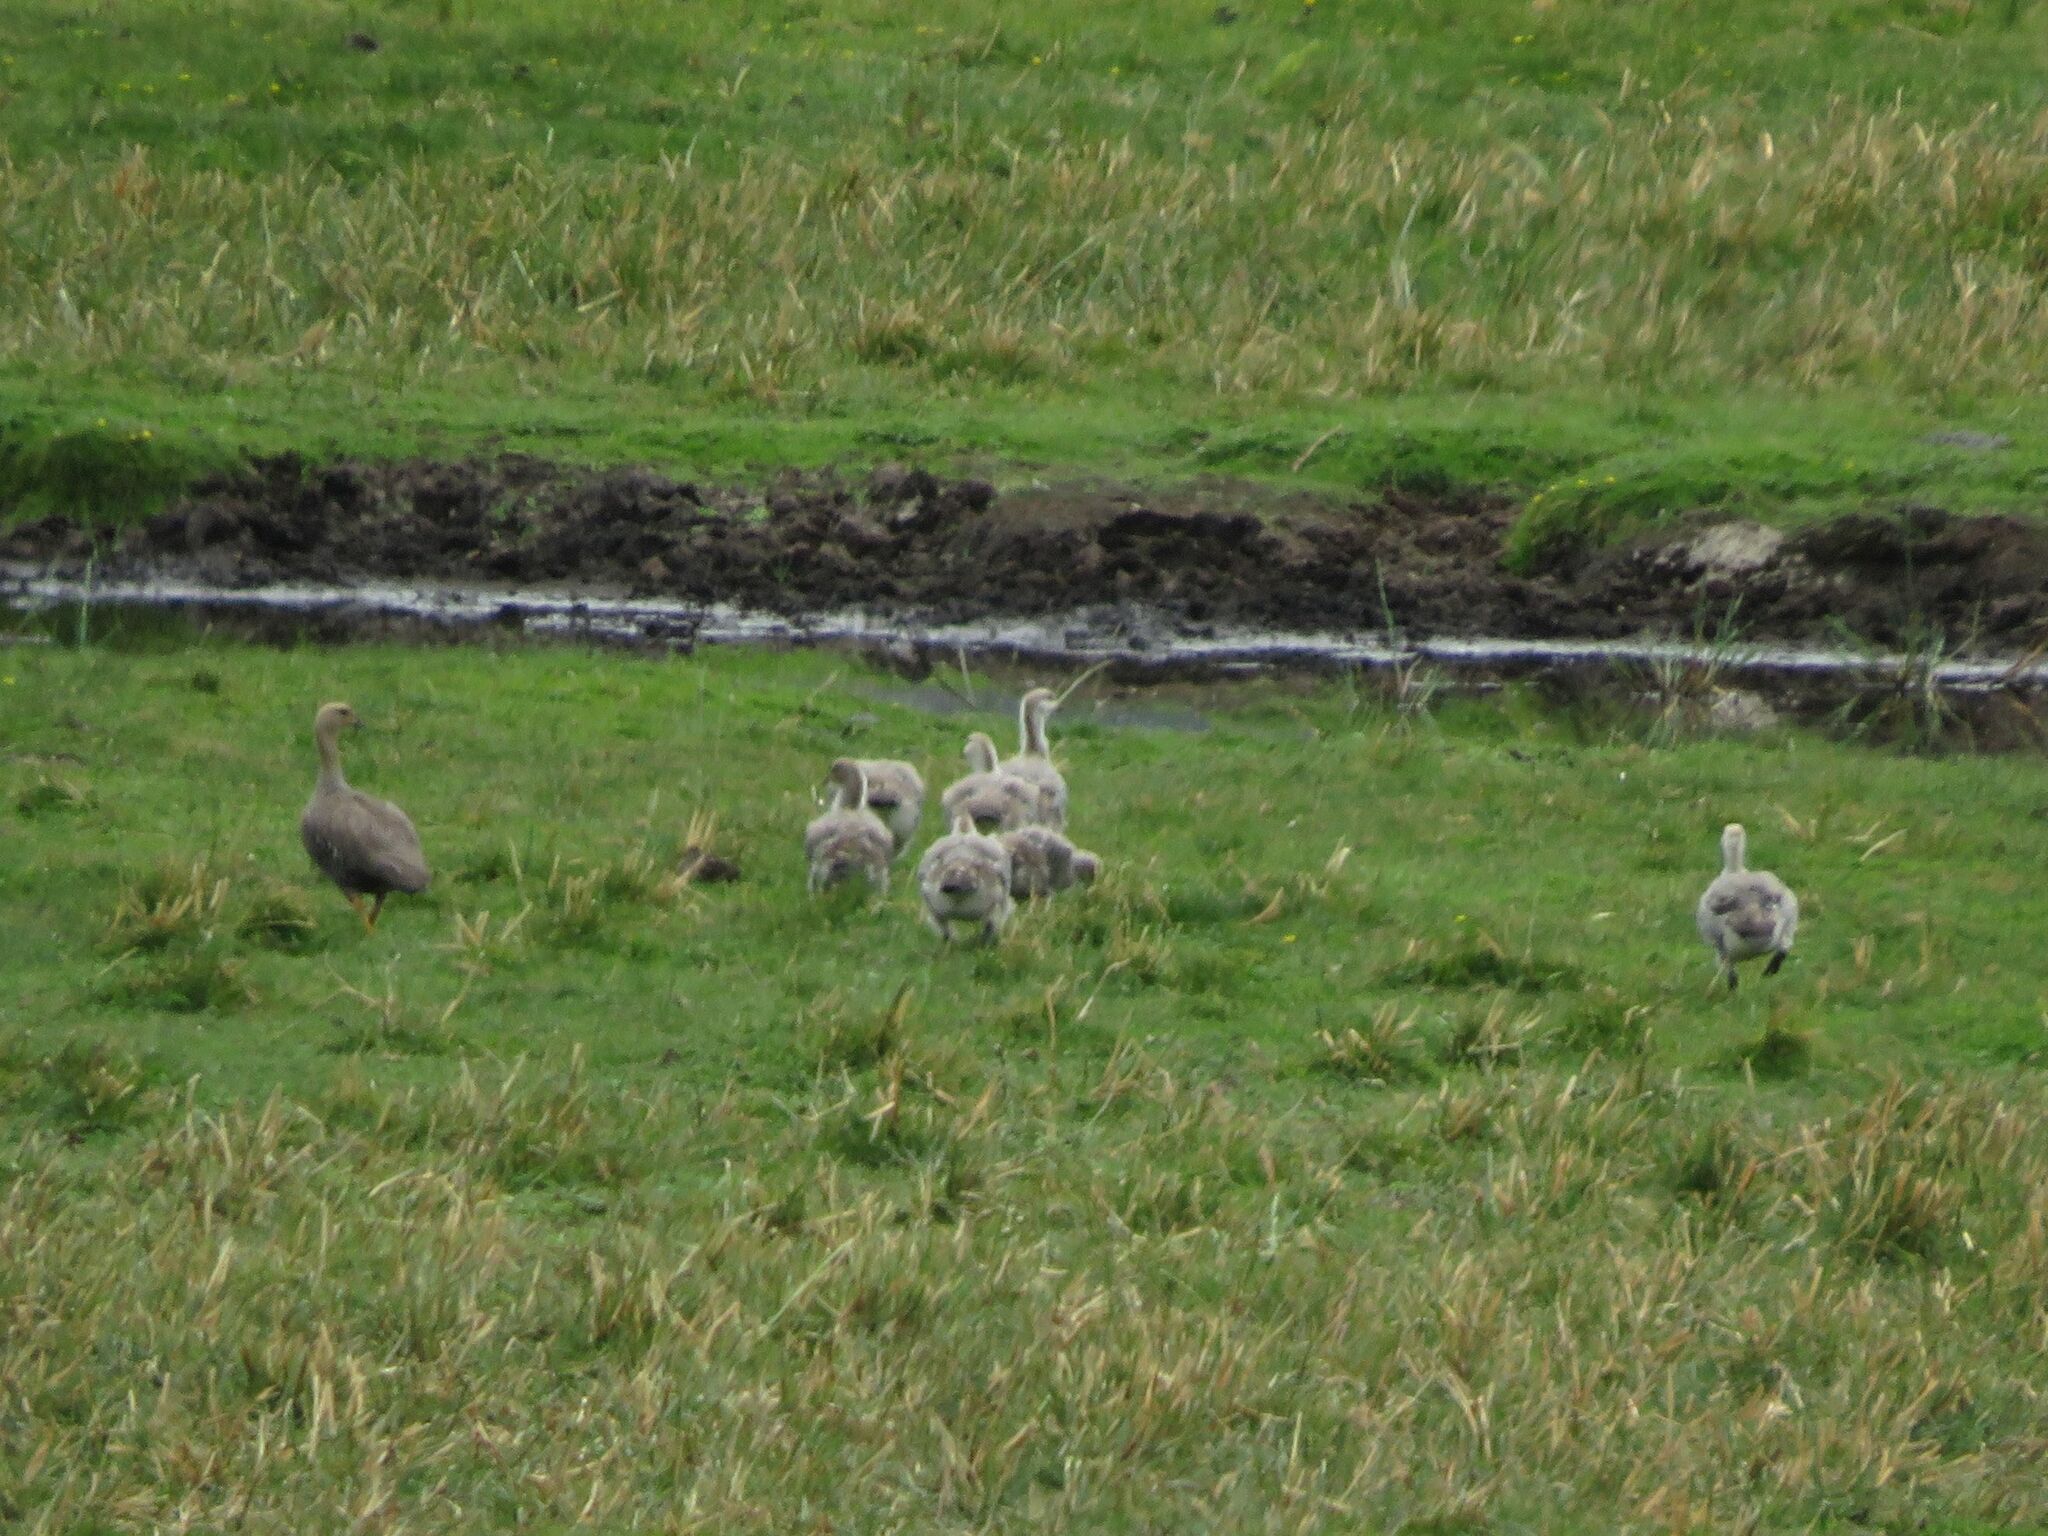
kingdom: Animalia
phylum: Chordata
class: Aves
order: Anseriformes
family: Anatidae
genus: Chloephaga
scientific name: Chloephaga picta
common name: Upland goose
